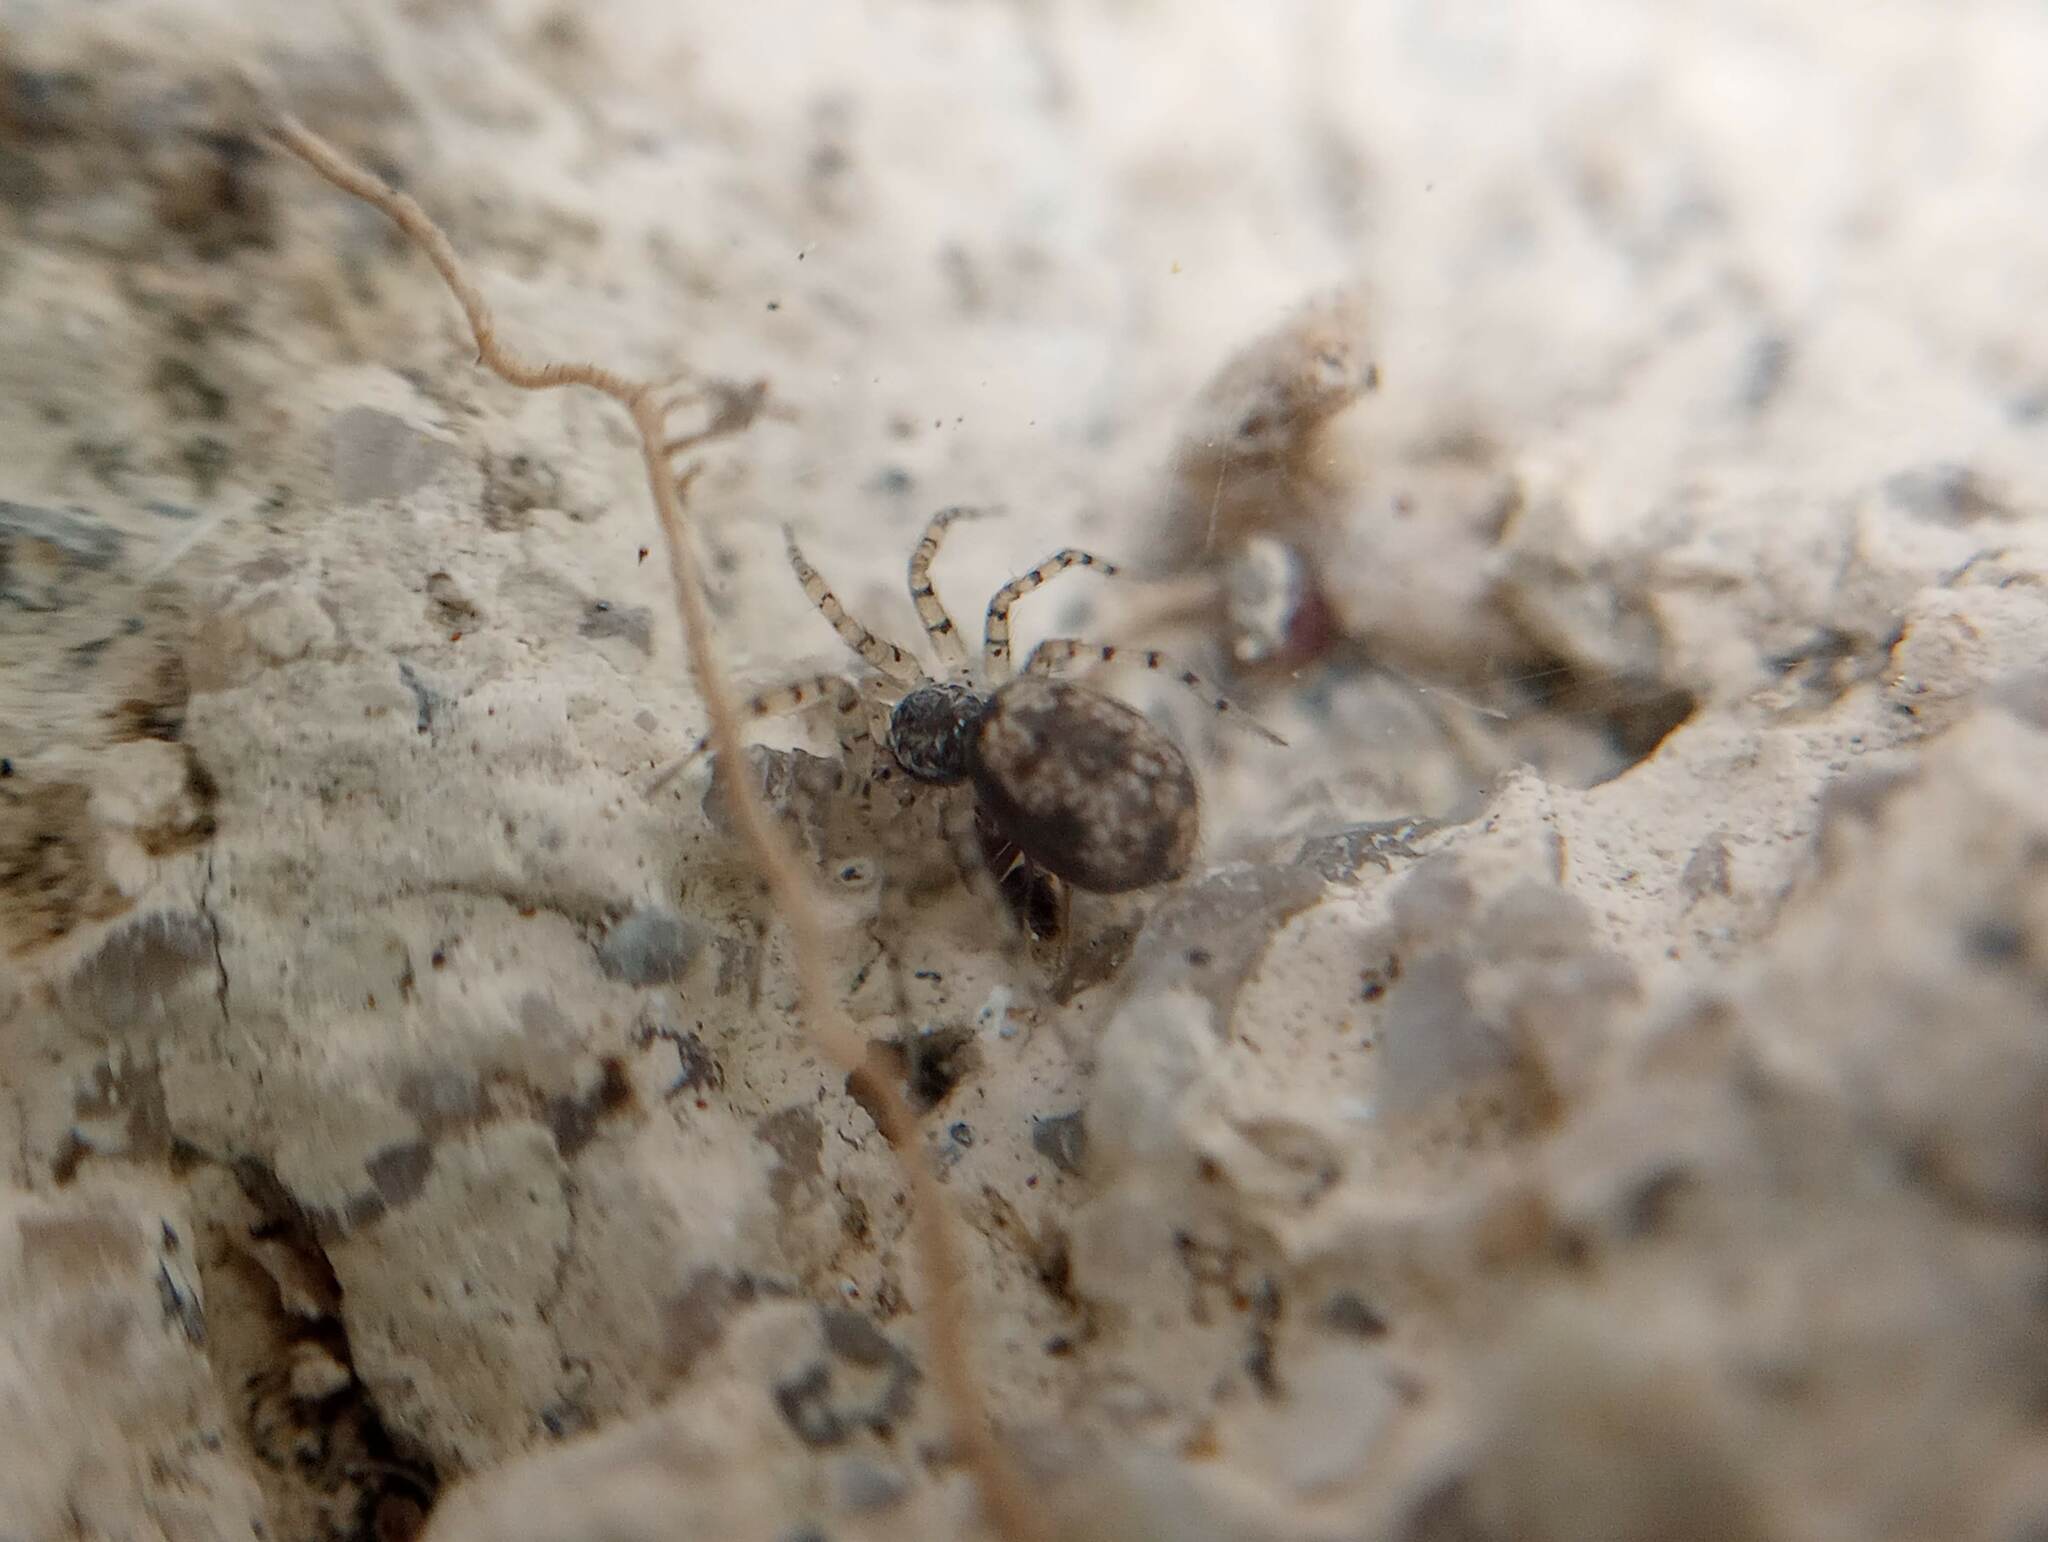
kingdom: Animalia
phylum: Arthropoda
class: Arachnida
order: Araneae
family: Oecobiidae
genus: Oecobius
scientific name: Oecobius
